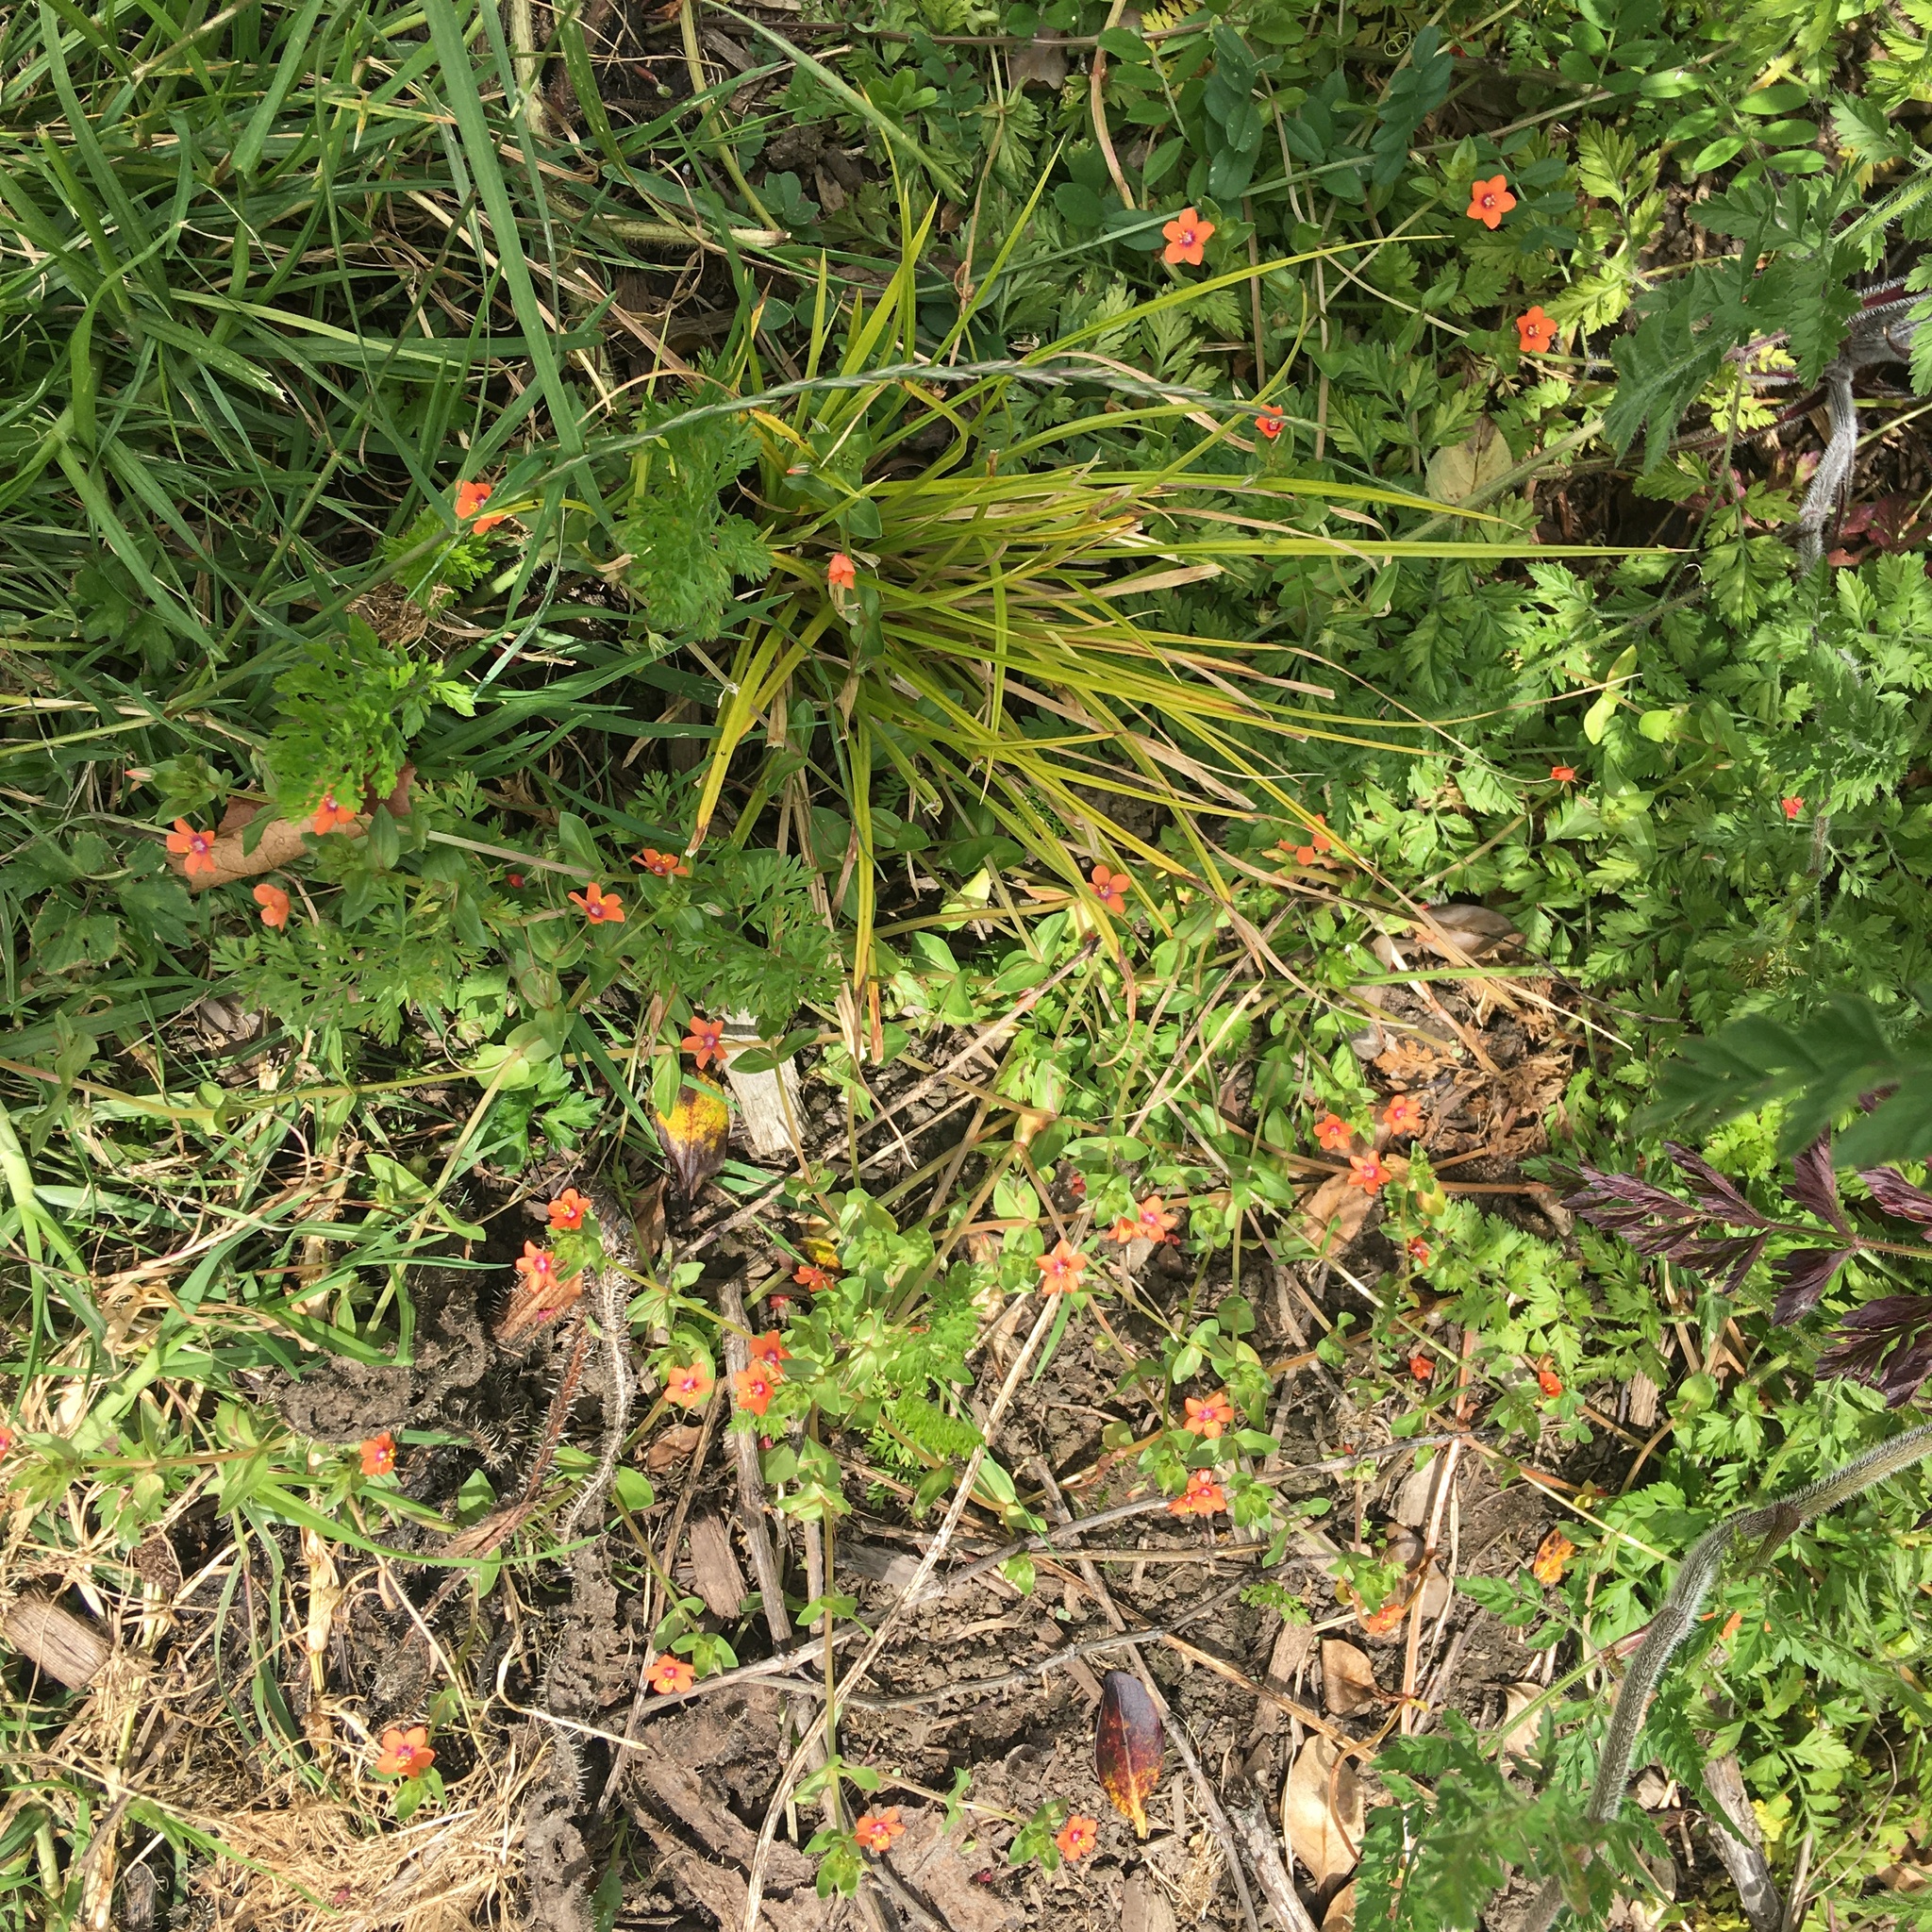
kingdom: Plantae
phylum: Tracheophyta
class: Magnoliopsida
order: Ericales
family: Primulaceae
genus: Lysimachia
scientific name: Lysimachia arvensis
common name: Scarlet pimpernel
